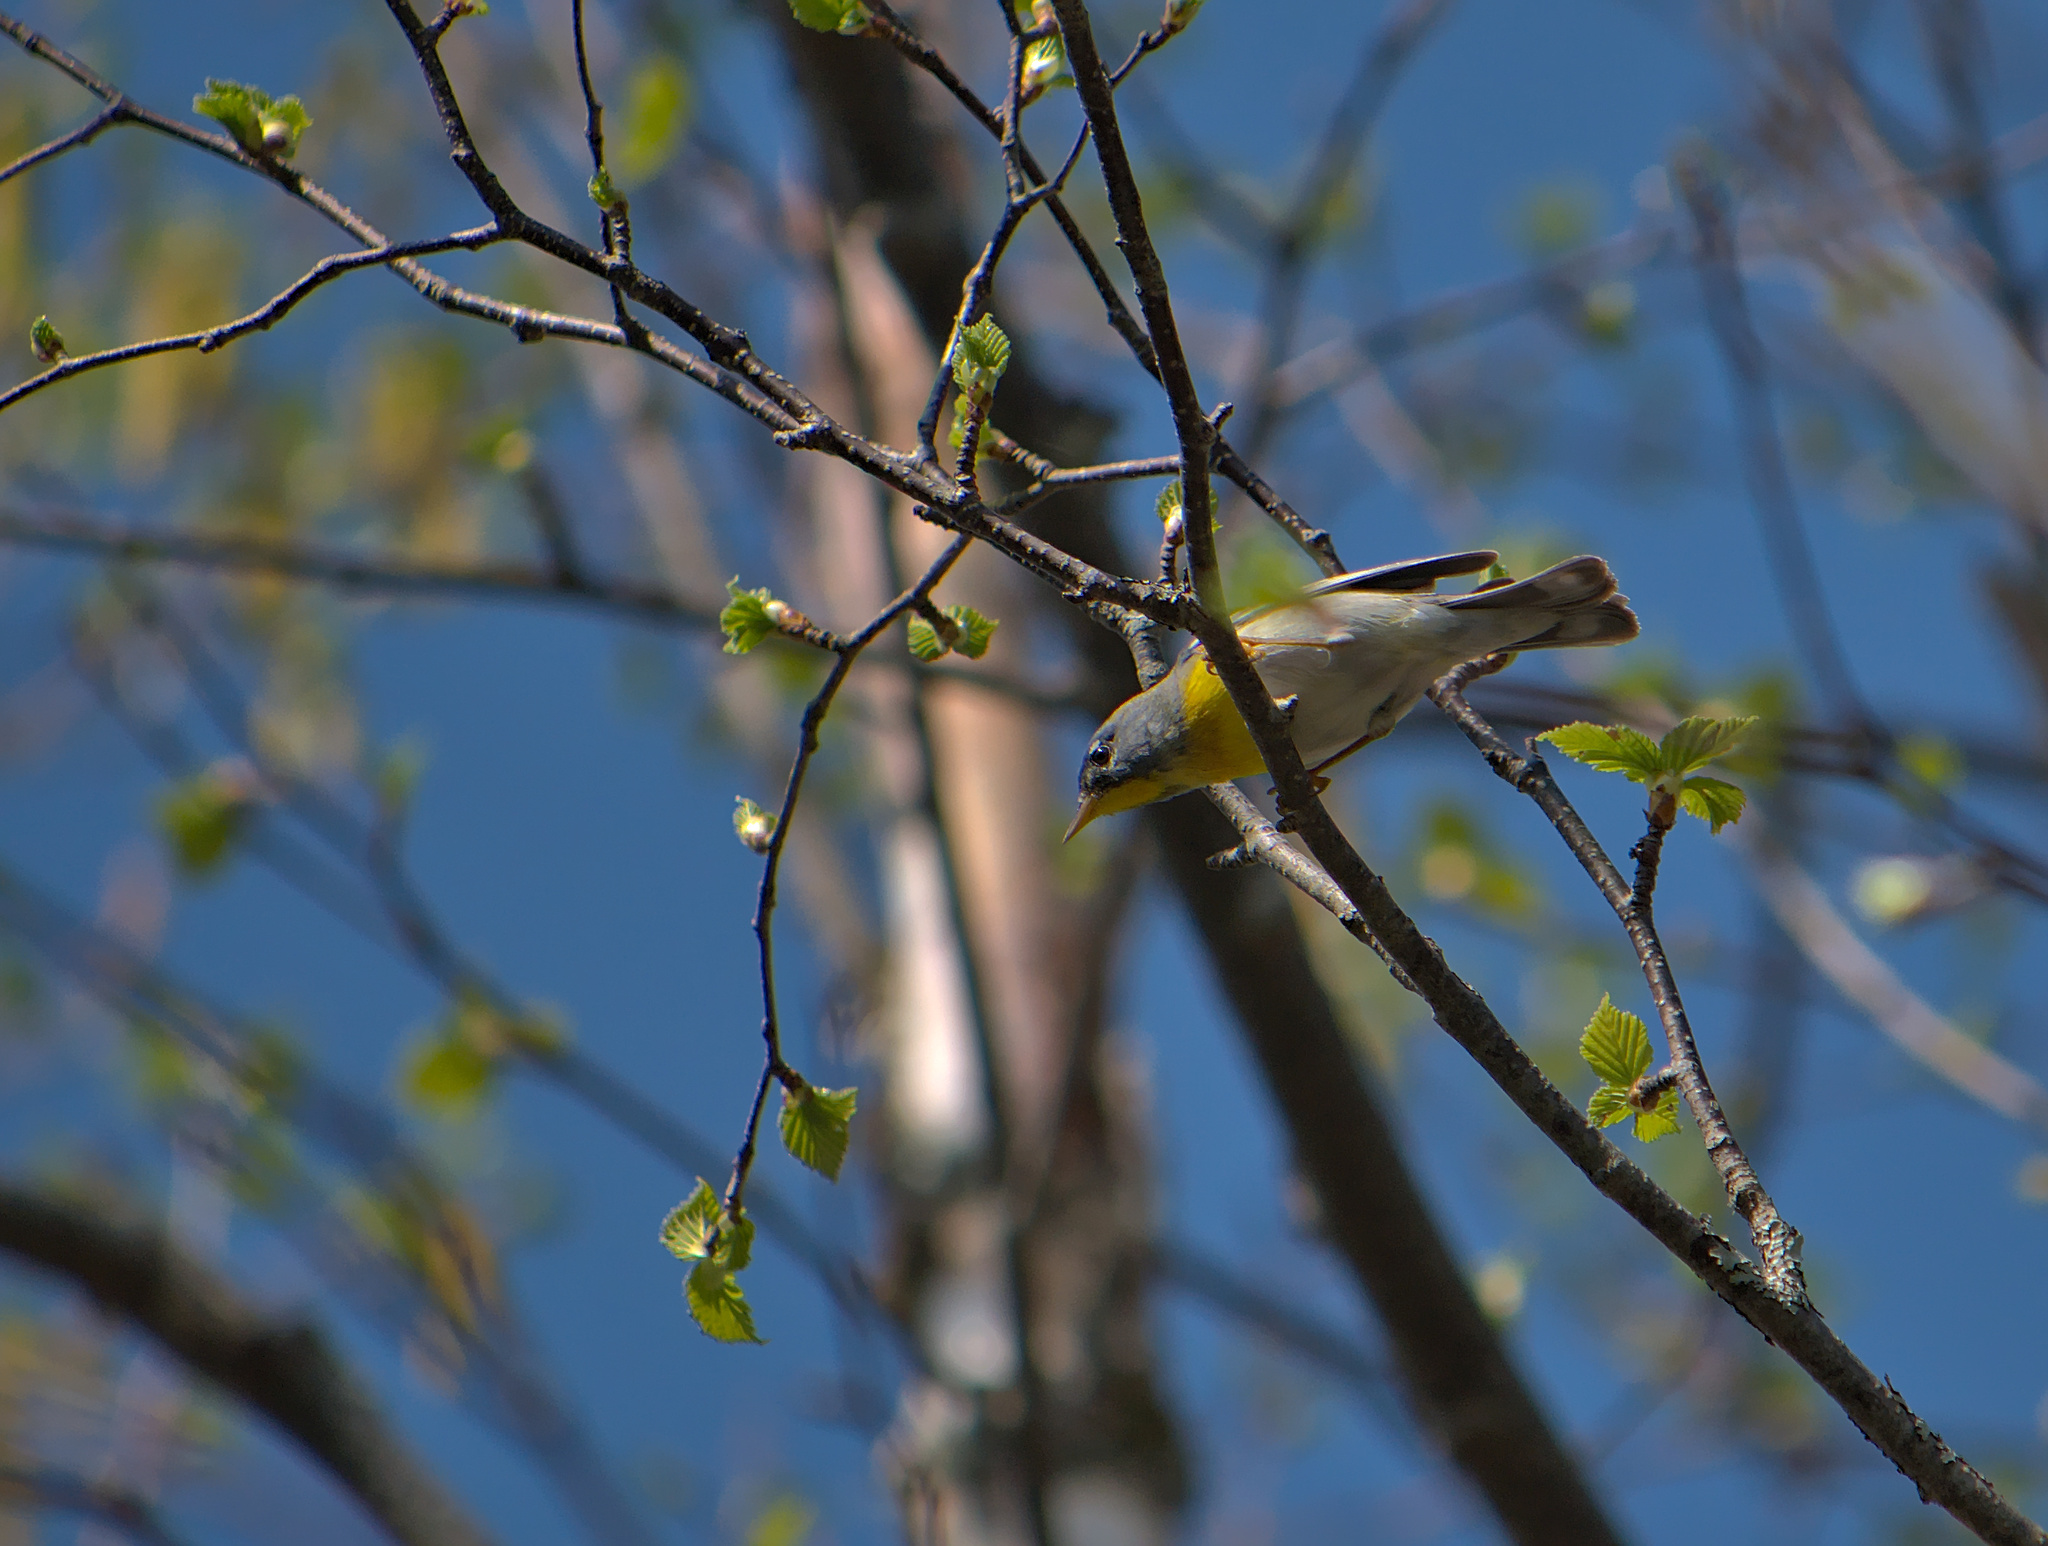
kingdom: Animalia
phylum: Chordata
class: Aves
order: Passeriformes
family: Parulidae
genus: Setophaga
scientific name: Setophaga americana
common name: Northern parula
